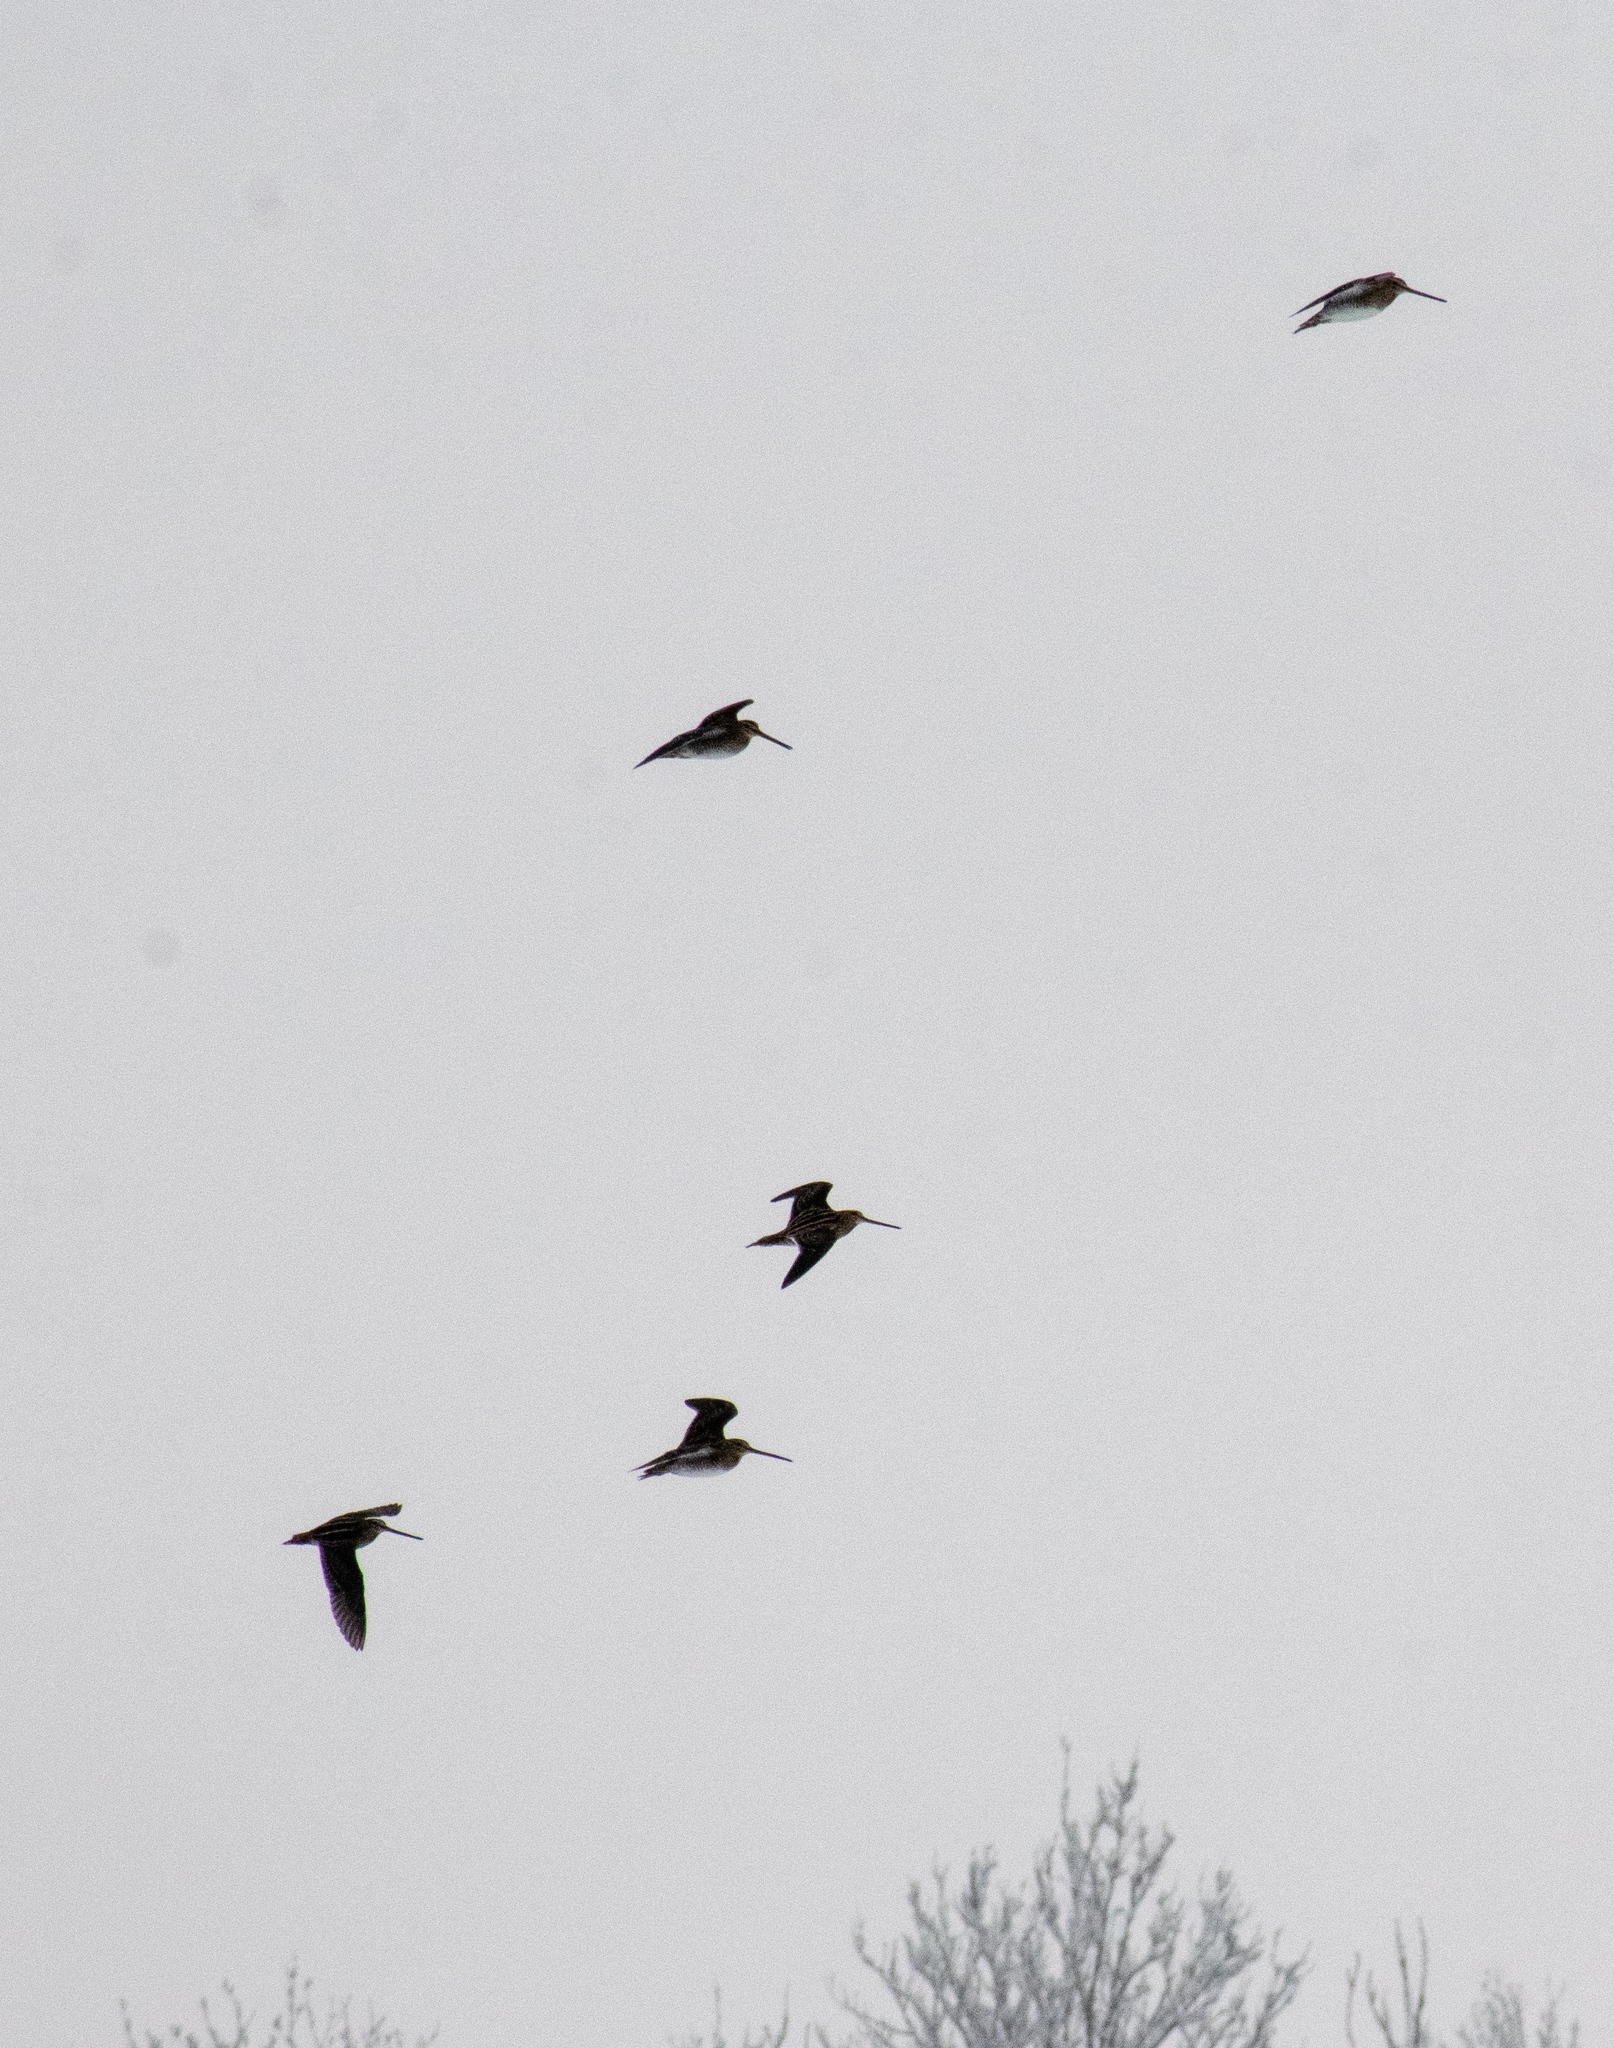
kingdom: Animalia
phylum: Chordata
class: Aves
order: Charadriiformes
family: Scolopacidae
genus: Gallinago
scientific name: Gallinago gallinago
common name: Common snipe
